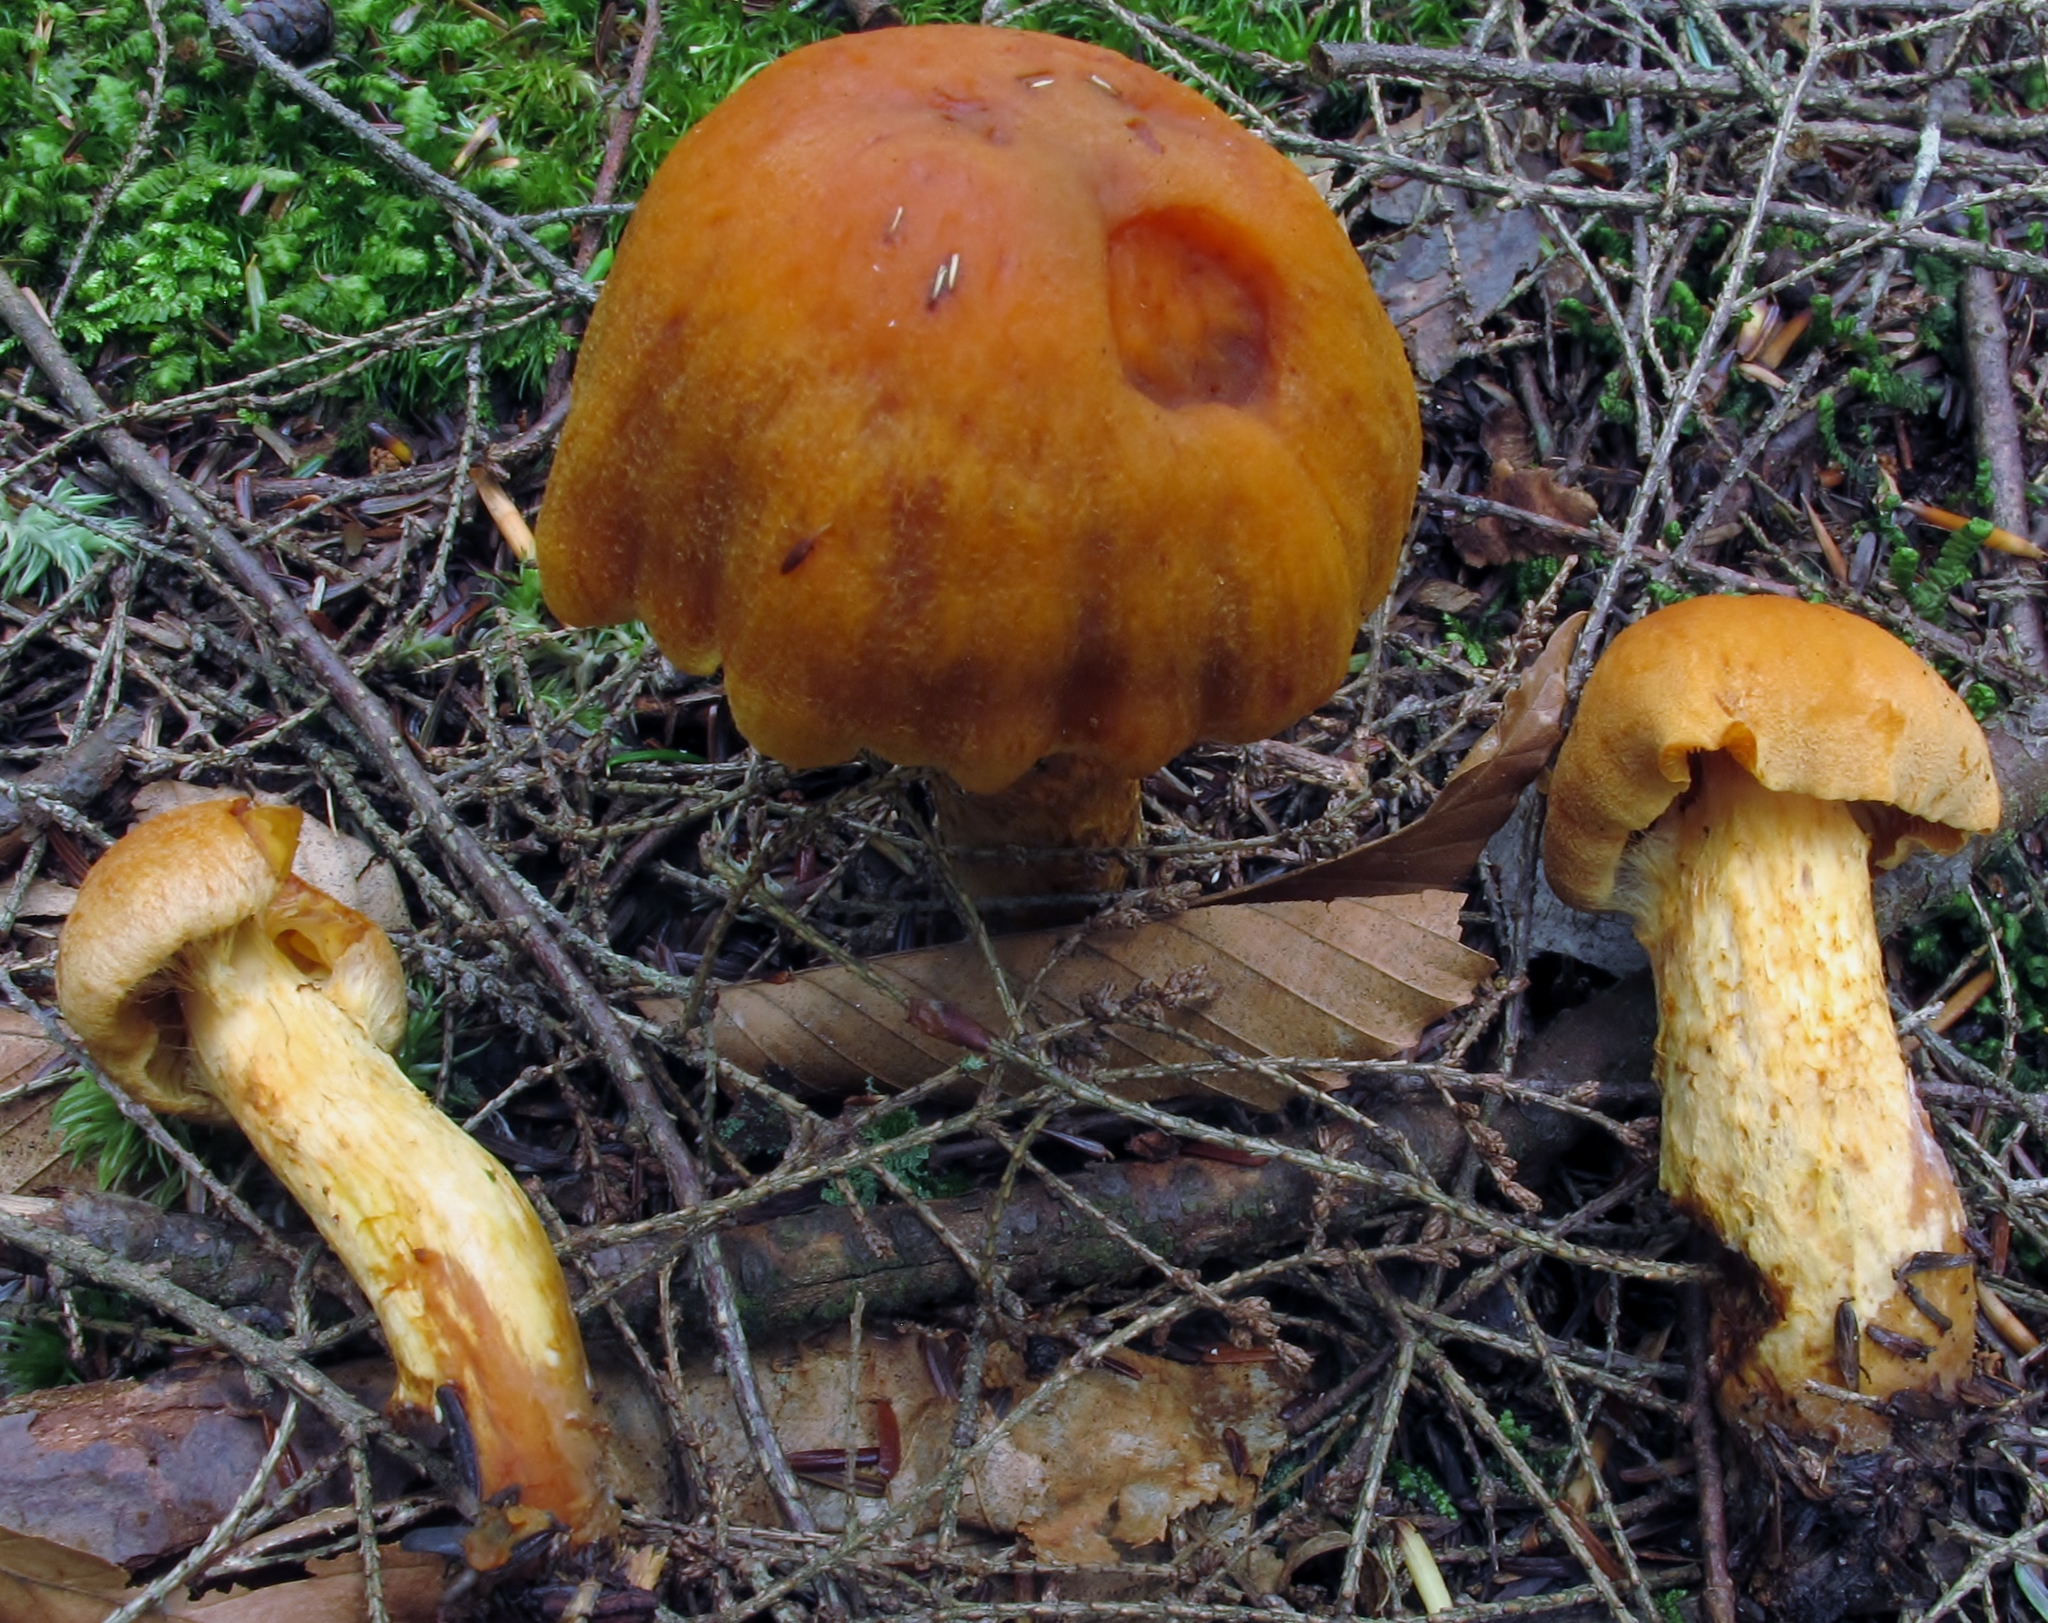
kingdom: Fungi
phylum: Basidiomycota
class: Agaricomycetes
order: Agaricales
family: Cortinariaceae
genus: Aureonarius
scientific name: Aureonarius limonius
